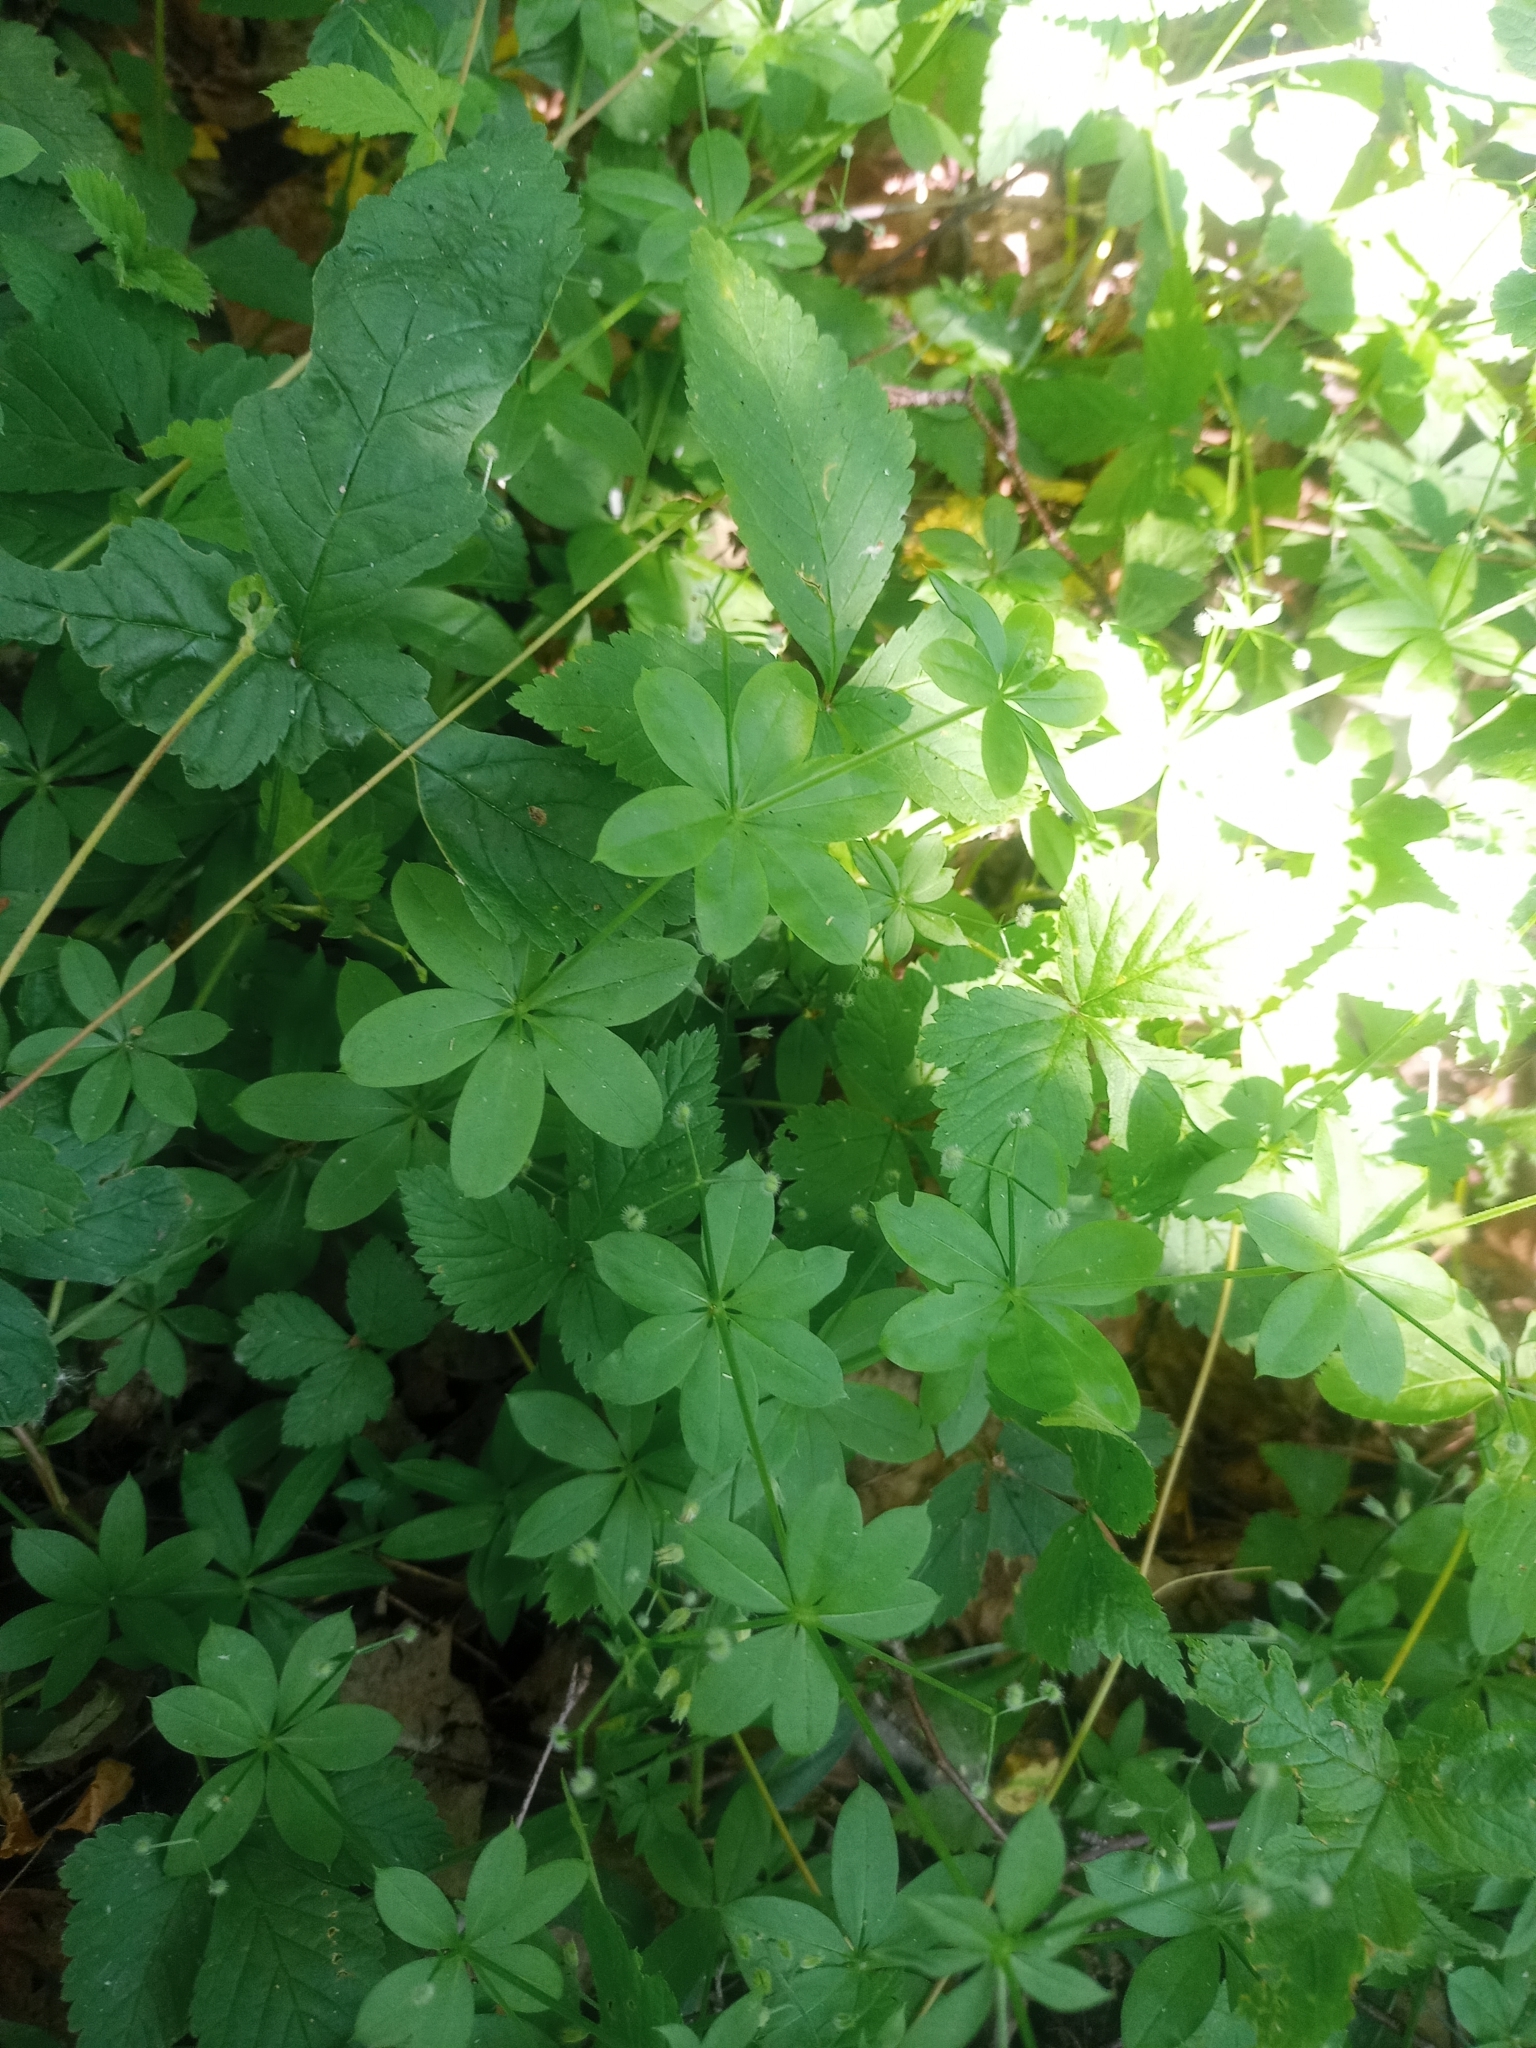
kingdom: Plantae
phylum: Tracheophyta
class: Magnoliopsida
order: Gentianales
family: Rubiaceae
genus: Galium
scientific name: Galium triflorum
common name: Fragrant bedstraw
